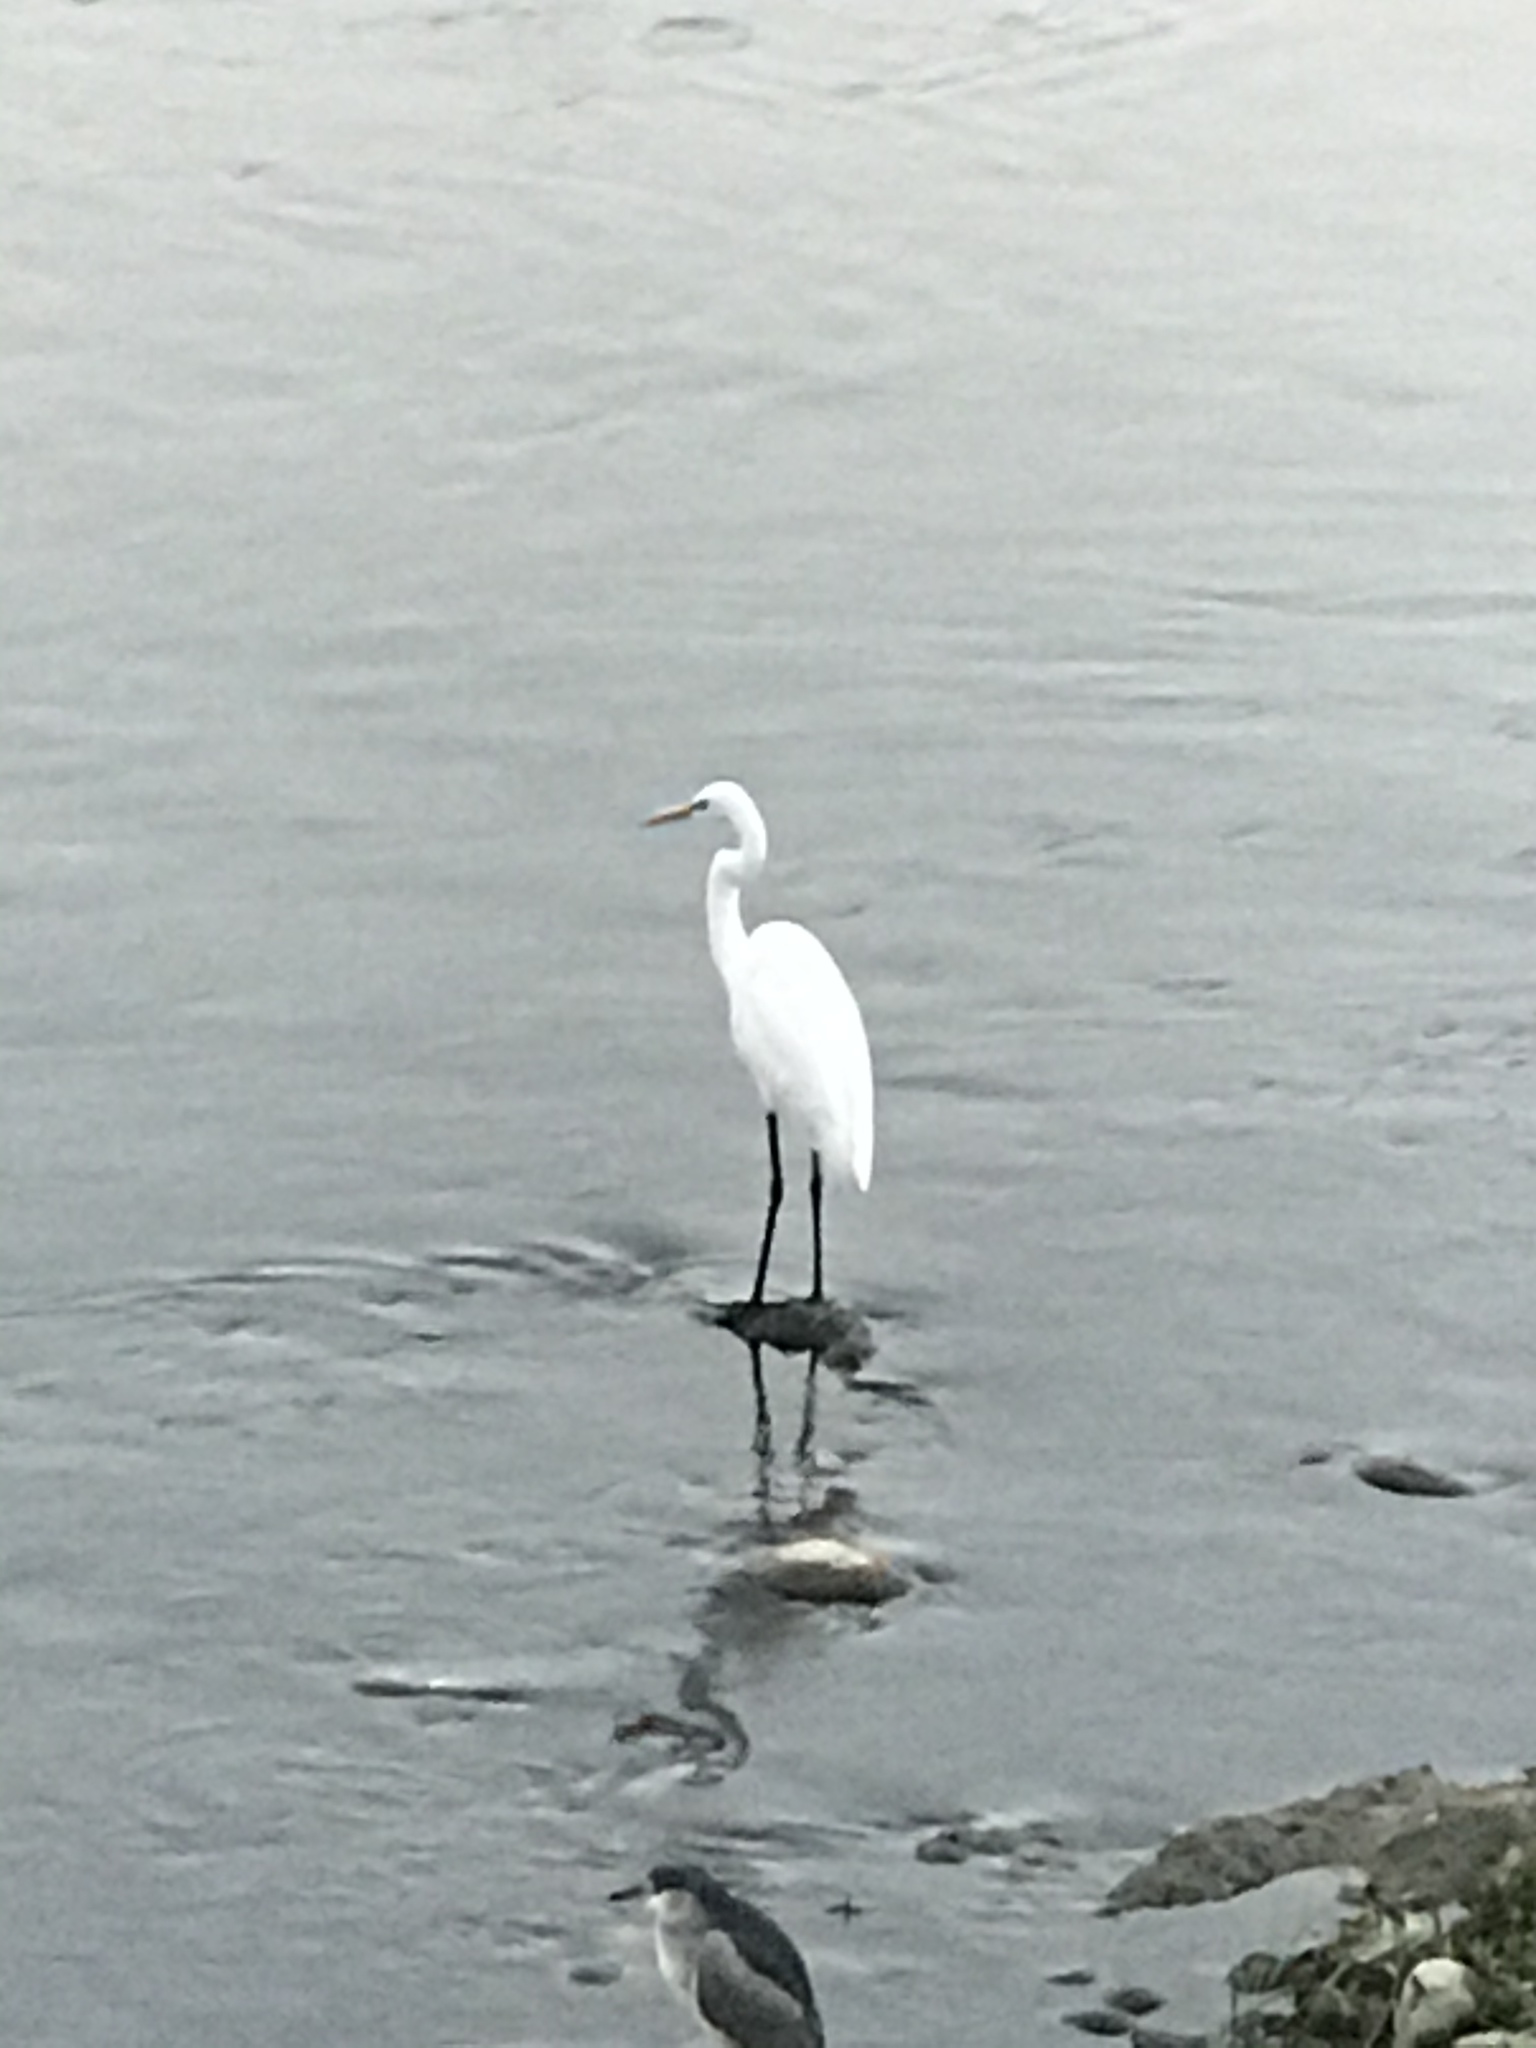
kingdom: Animalia
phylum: Chordata
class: Aves
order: Pelecaniformes
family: Ardeidae
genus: Ardea
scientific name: Ardea alba
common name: Great egret
